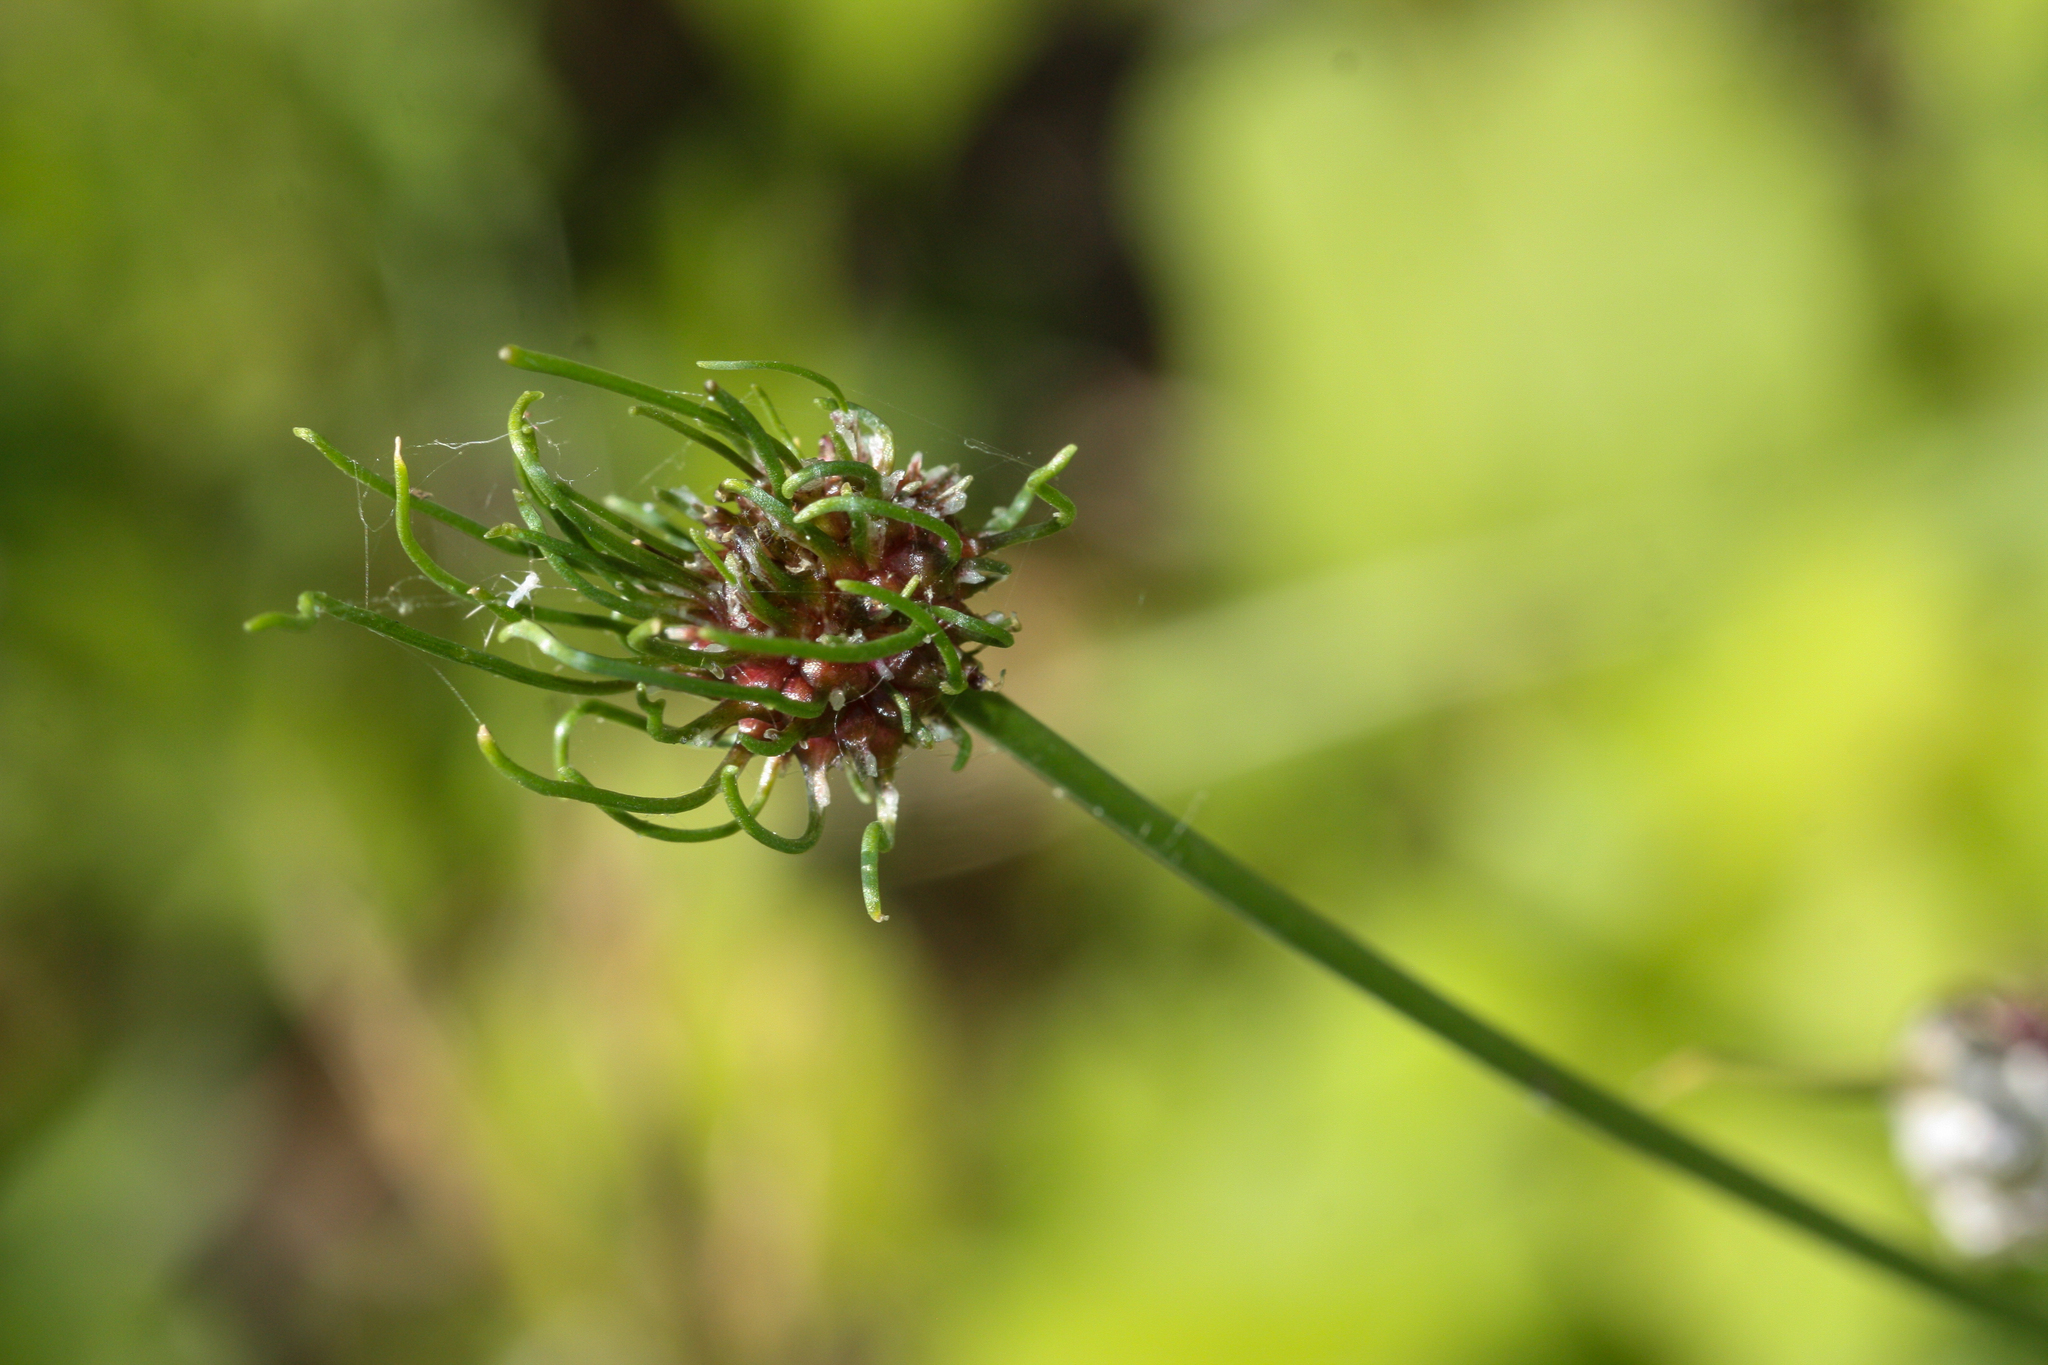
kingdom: Plantae
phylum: Tracheophyta
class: Liliopsida
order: Asparagales
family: Amaryllidaceae
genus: Allium
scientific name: Allium vineale
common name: Crow garlic
